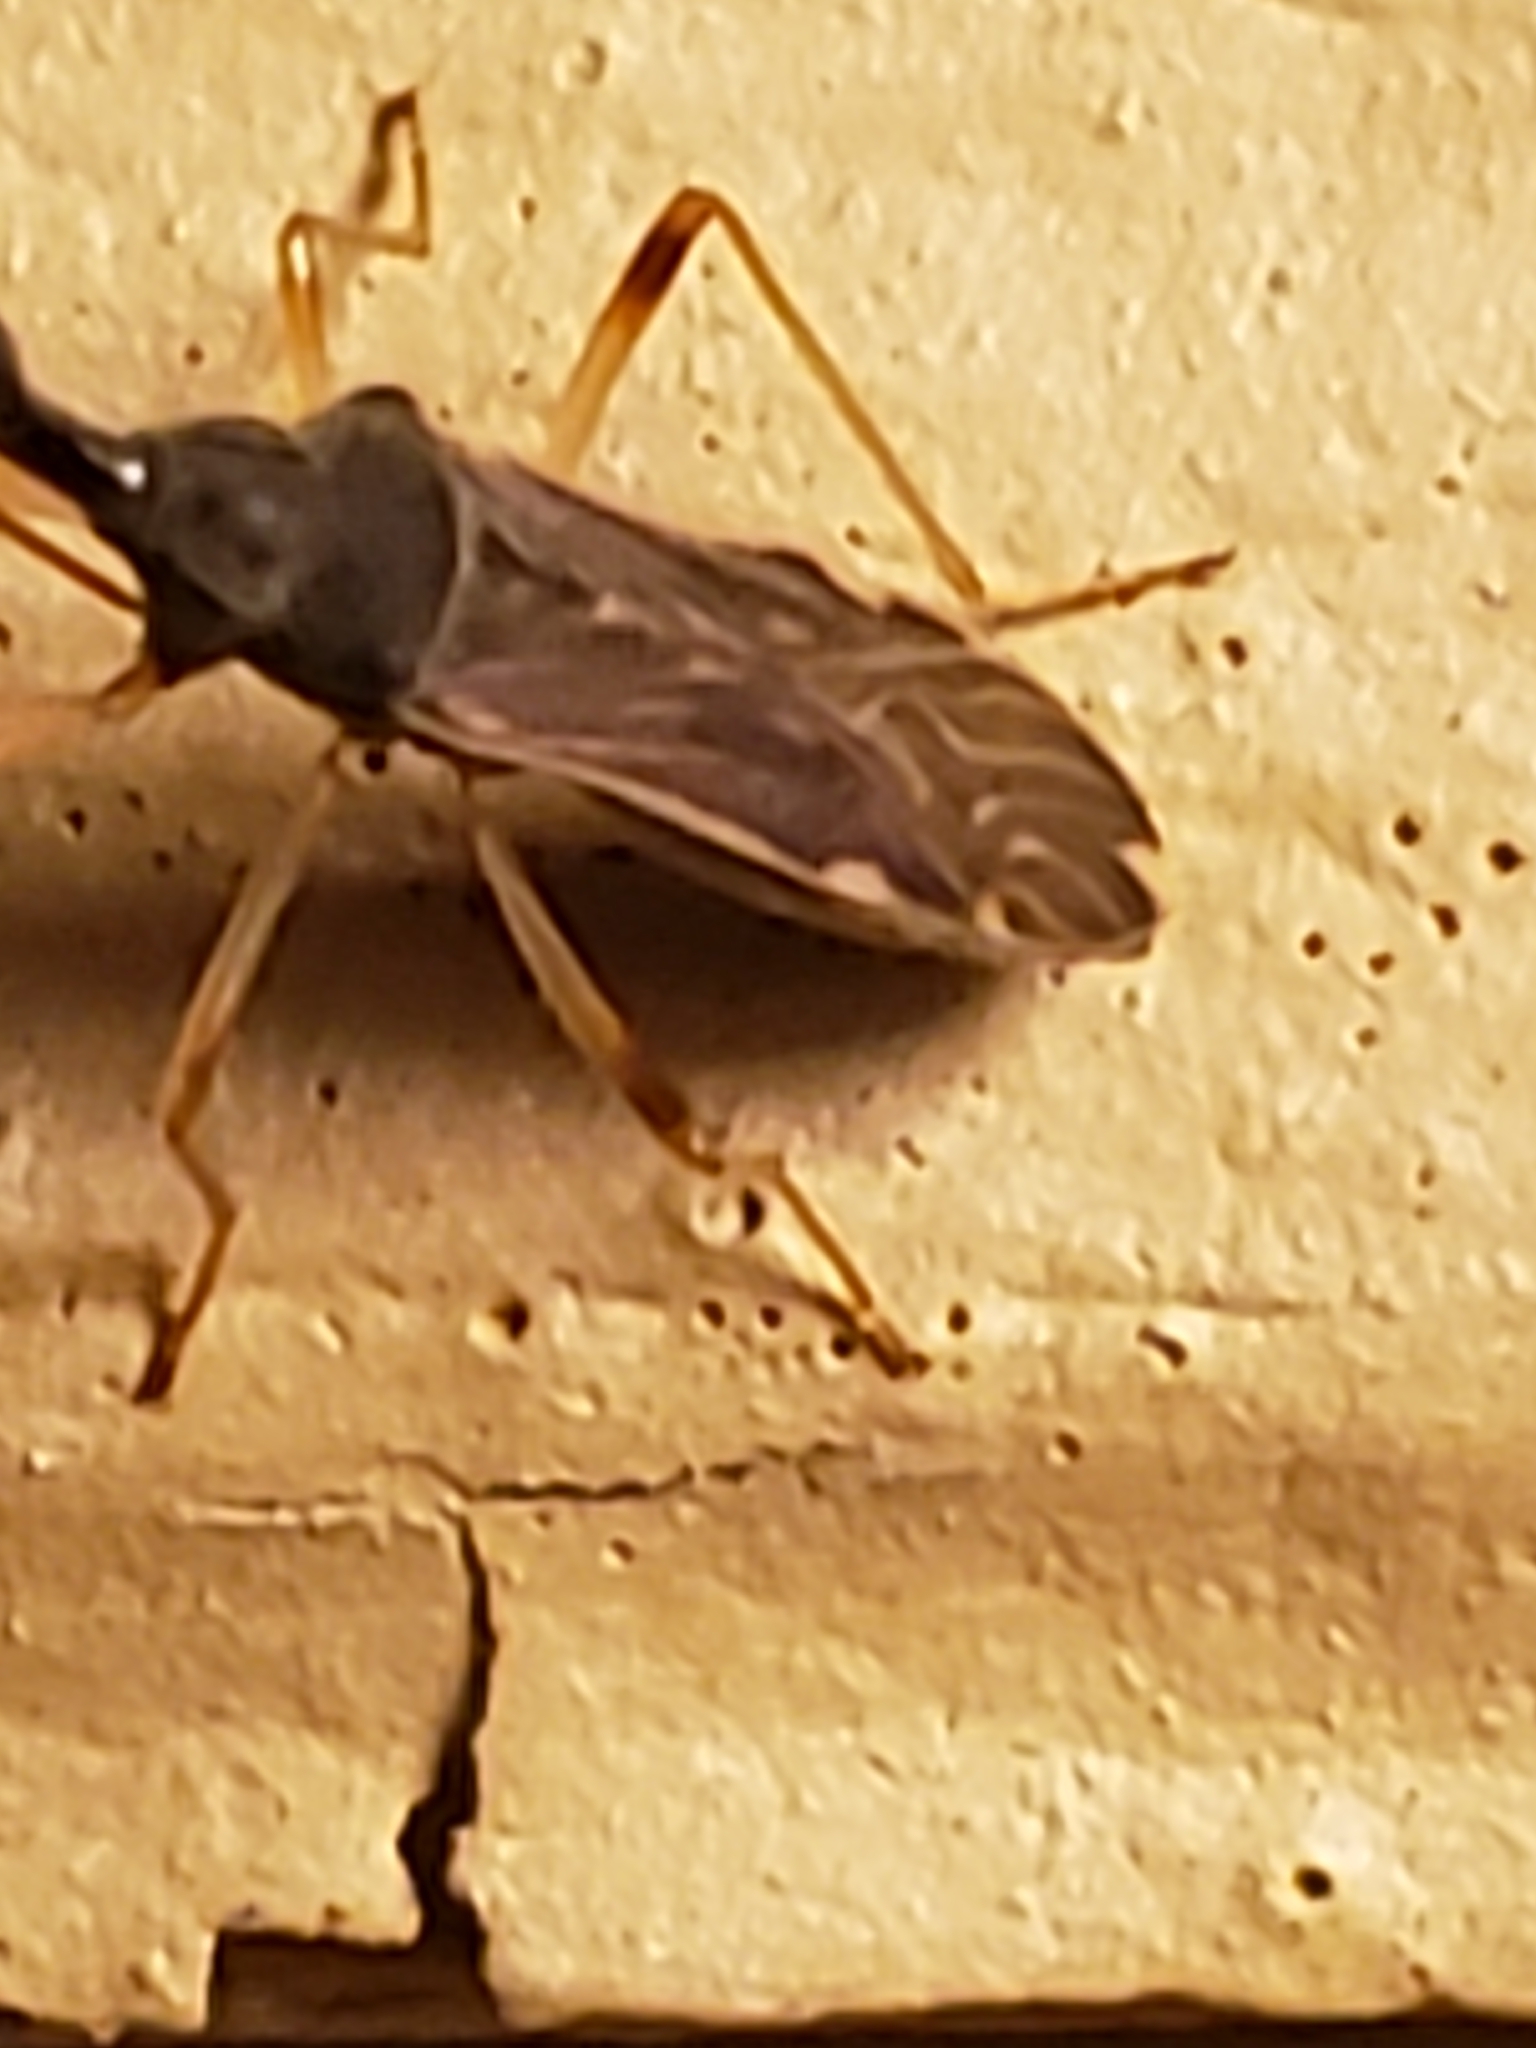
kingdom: Animalia
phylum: Arthropoda
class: Insecta
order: Hemiptera
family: Rhyparochromidae
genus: Myodocha
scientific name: Myodocha serripes
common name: Long-necked seed bug
